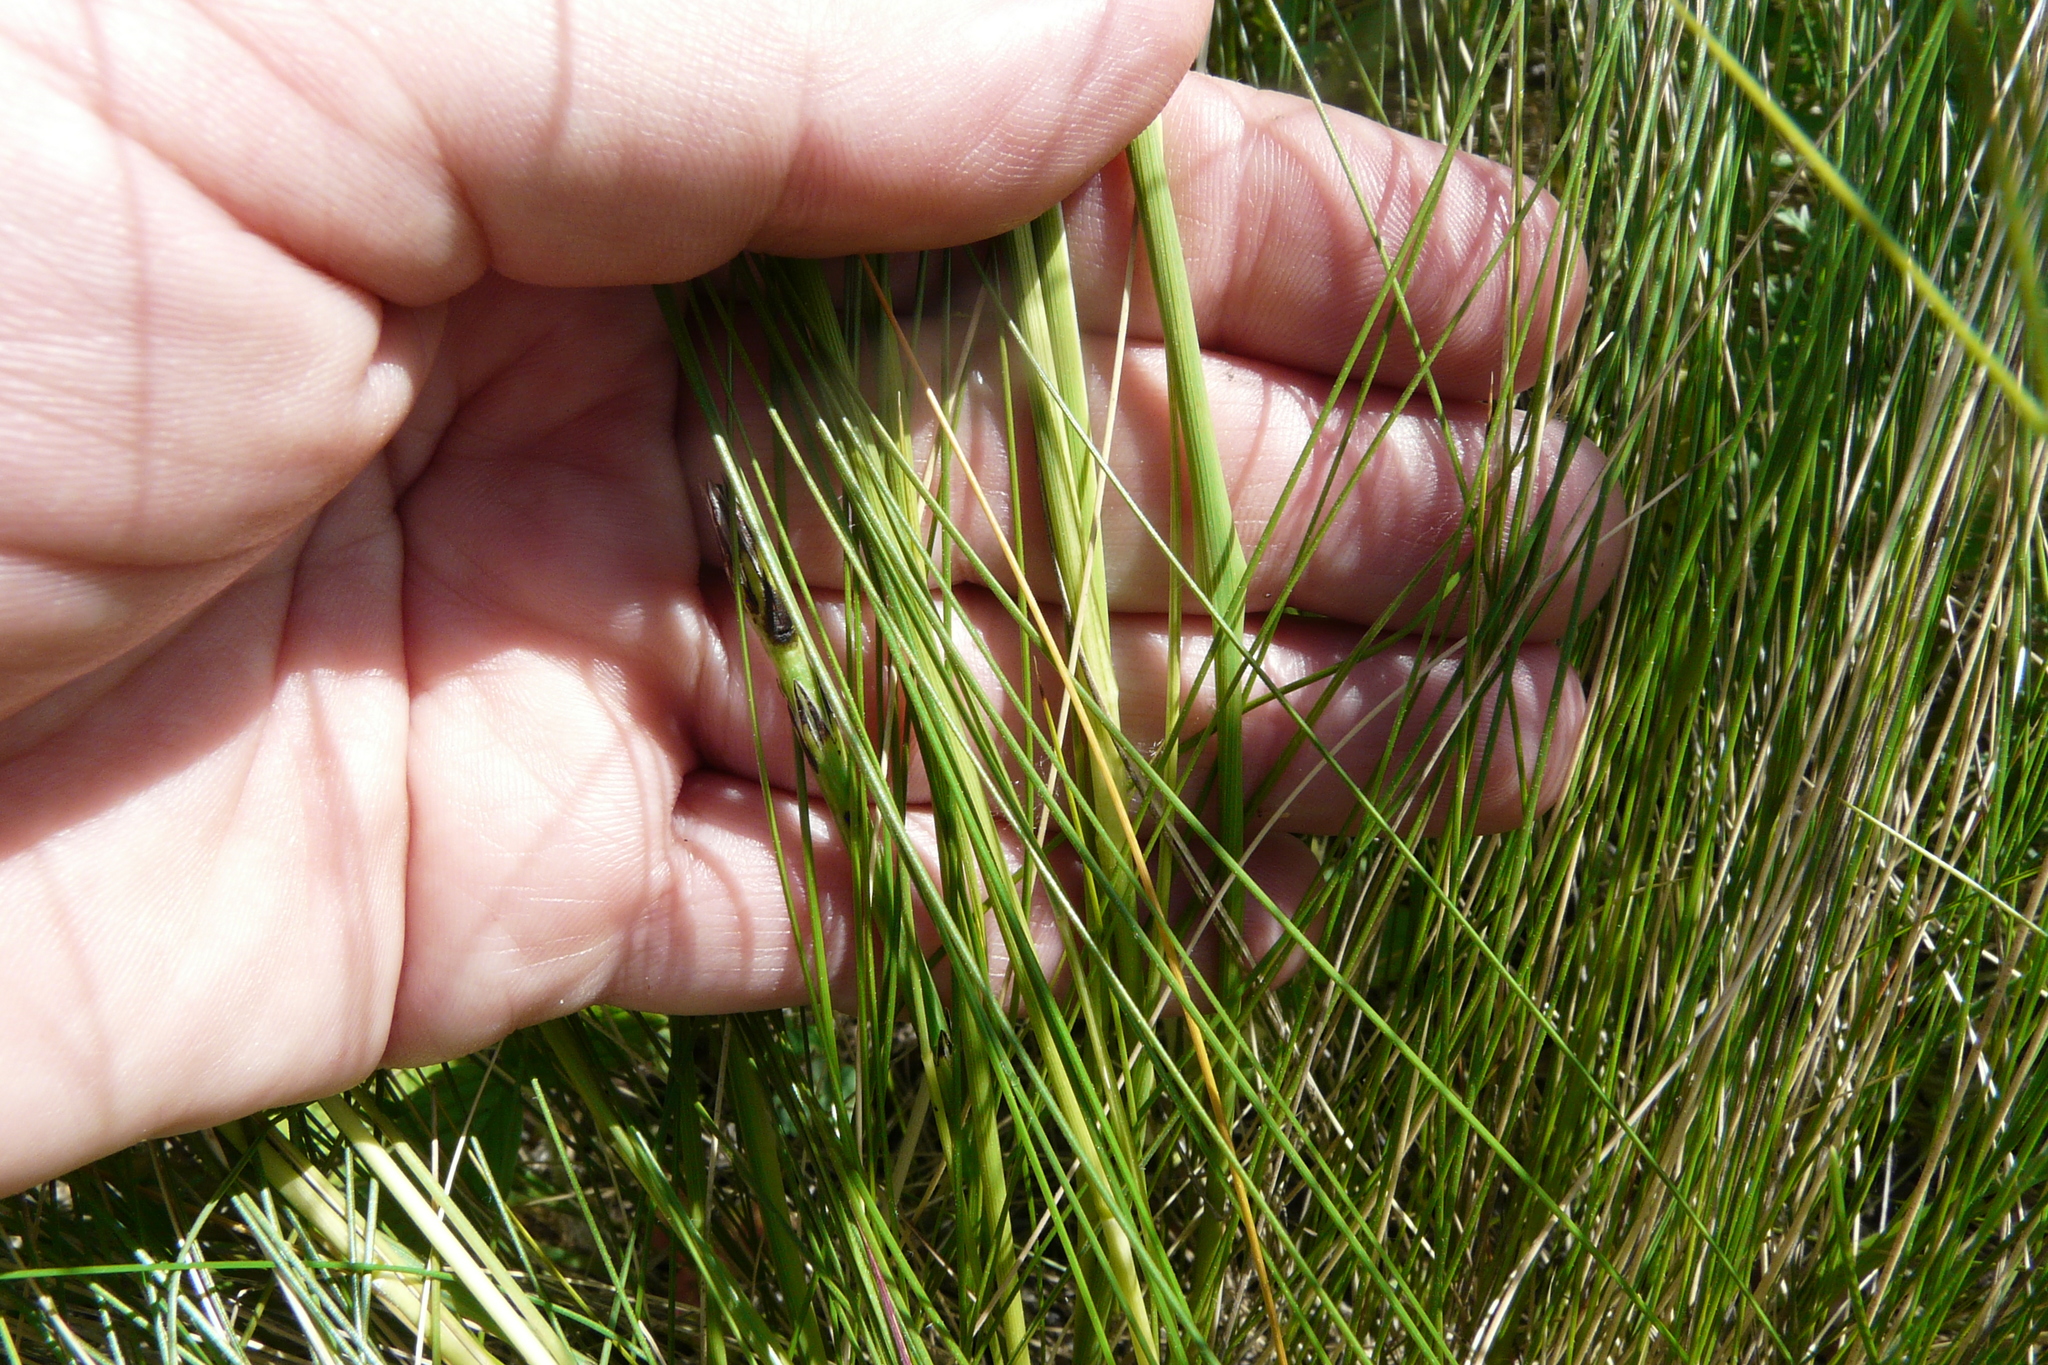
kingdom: Plantae
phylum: Tracheophyta
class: Liliopsida
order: Poales
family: Poaceae
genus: Stipa
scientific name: Stipa tirsa
